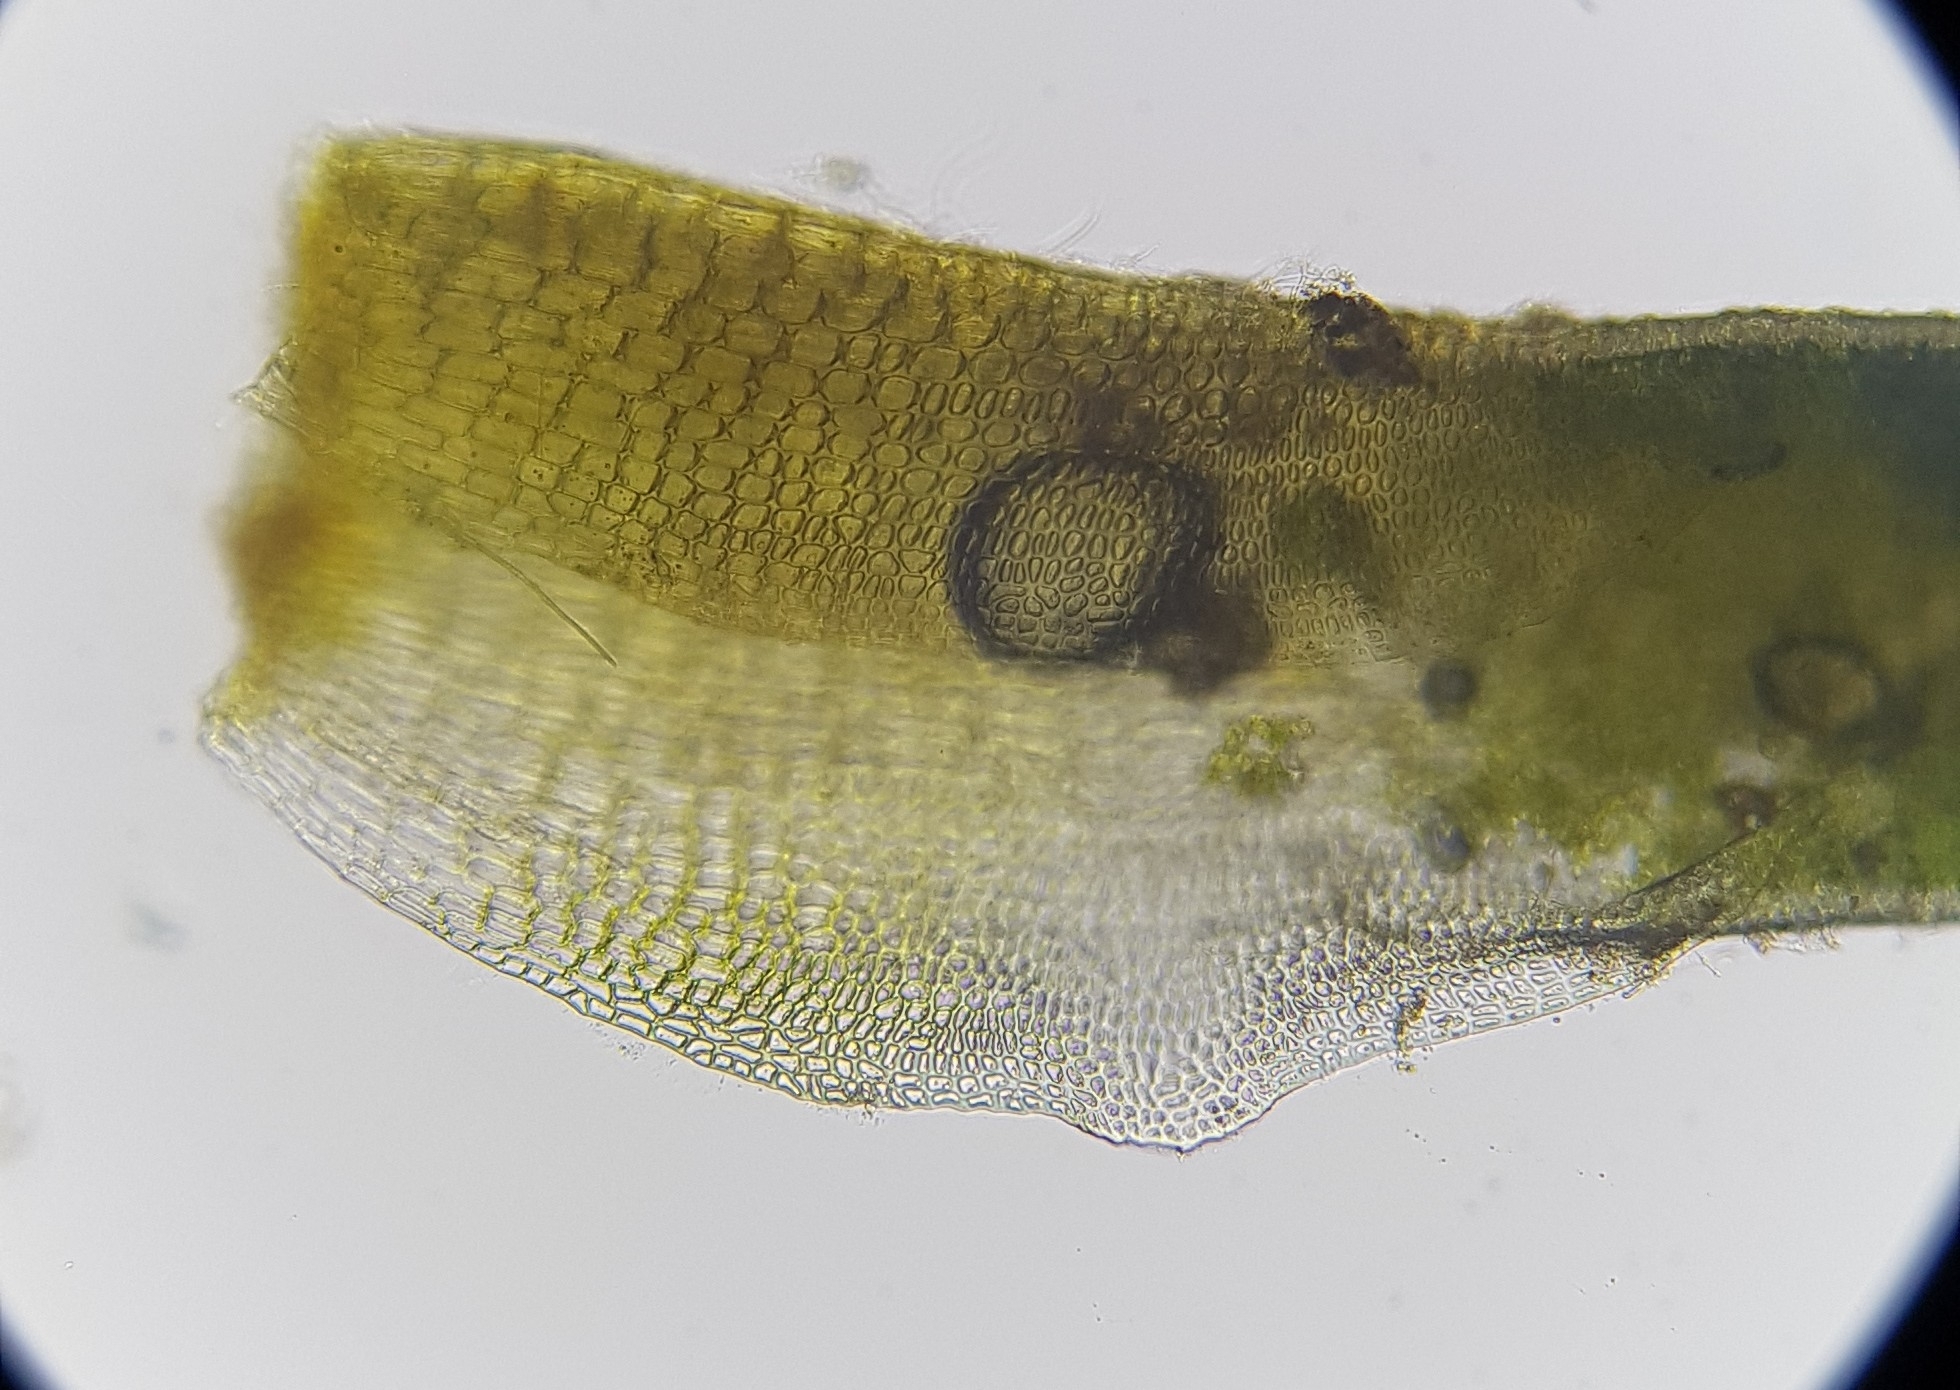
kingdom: Plantae
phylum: Bryophyta
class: Bryopsida
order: Pottiales
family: Pottiaceae
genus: Aloina
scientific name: Aloina aloides
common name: Common aloe-moss
